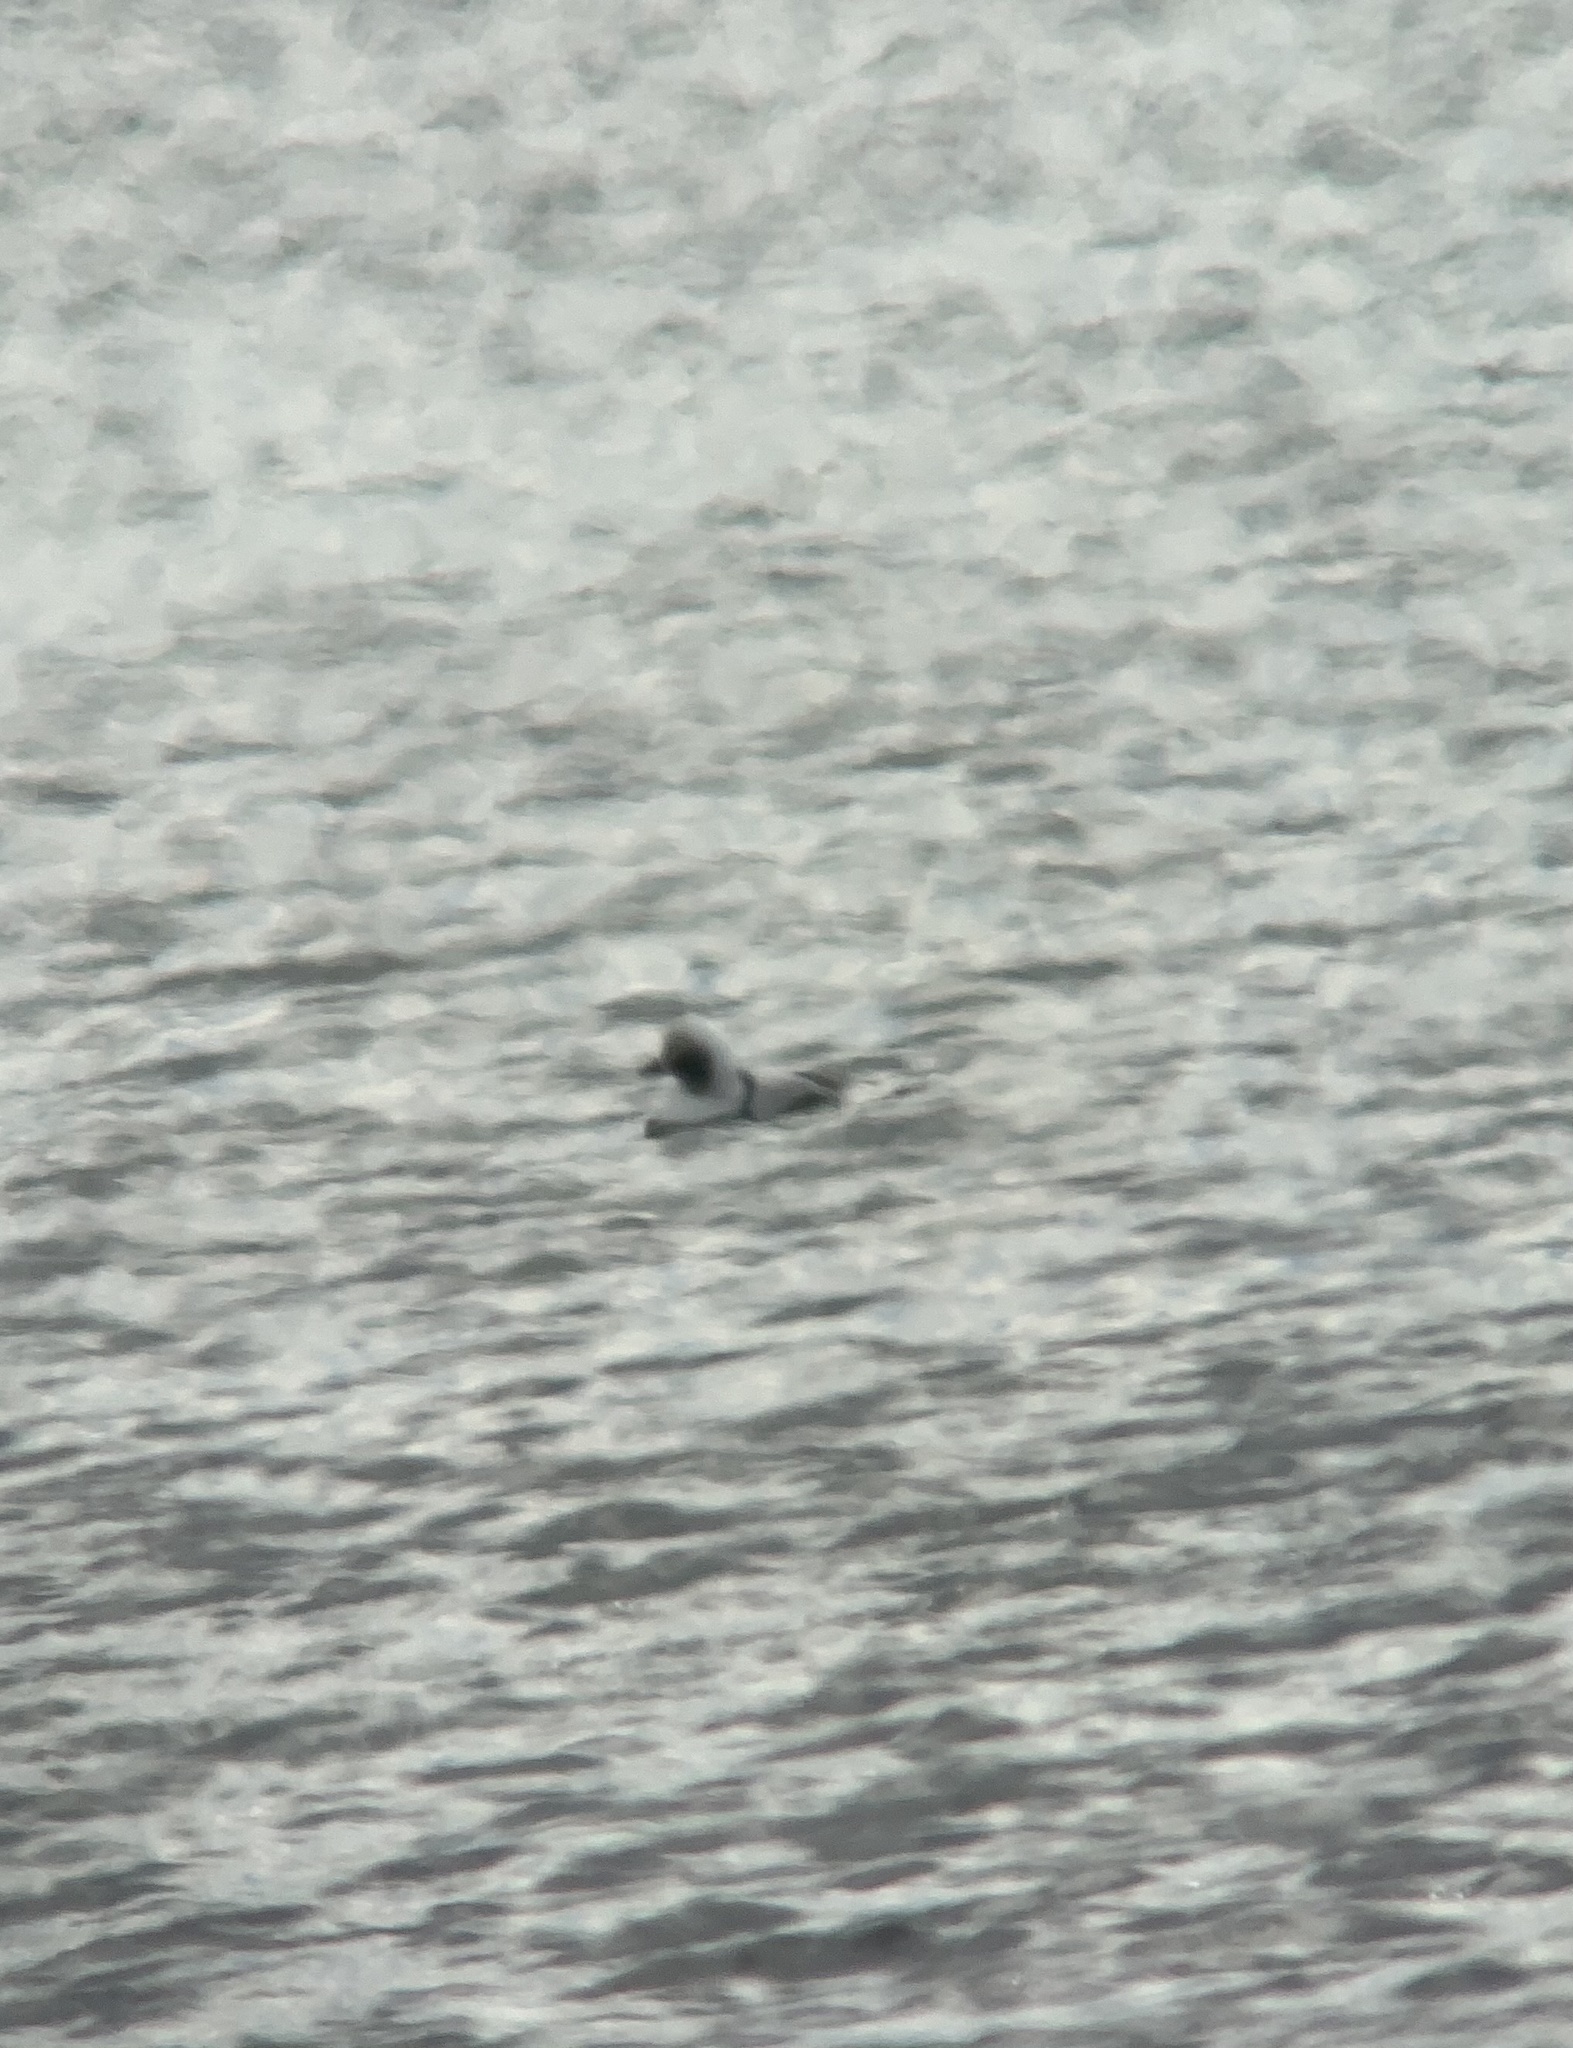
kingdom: Animalia
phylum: Chordata
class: Aves
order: Anseriformes
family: Anatidae
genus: Clangula
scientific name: Clangula hyemalis
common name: Long-tailed duck
